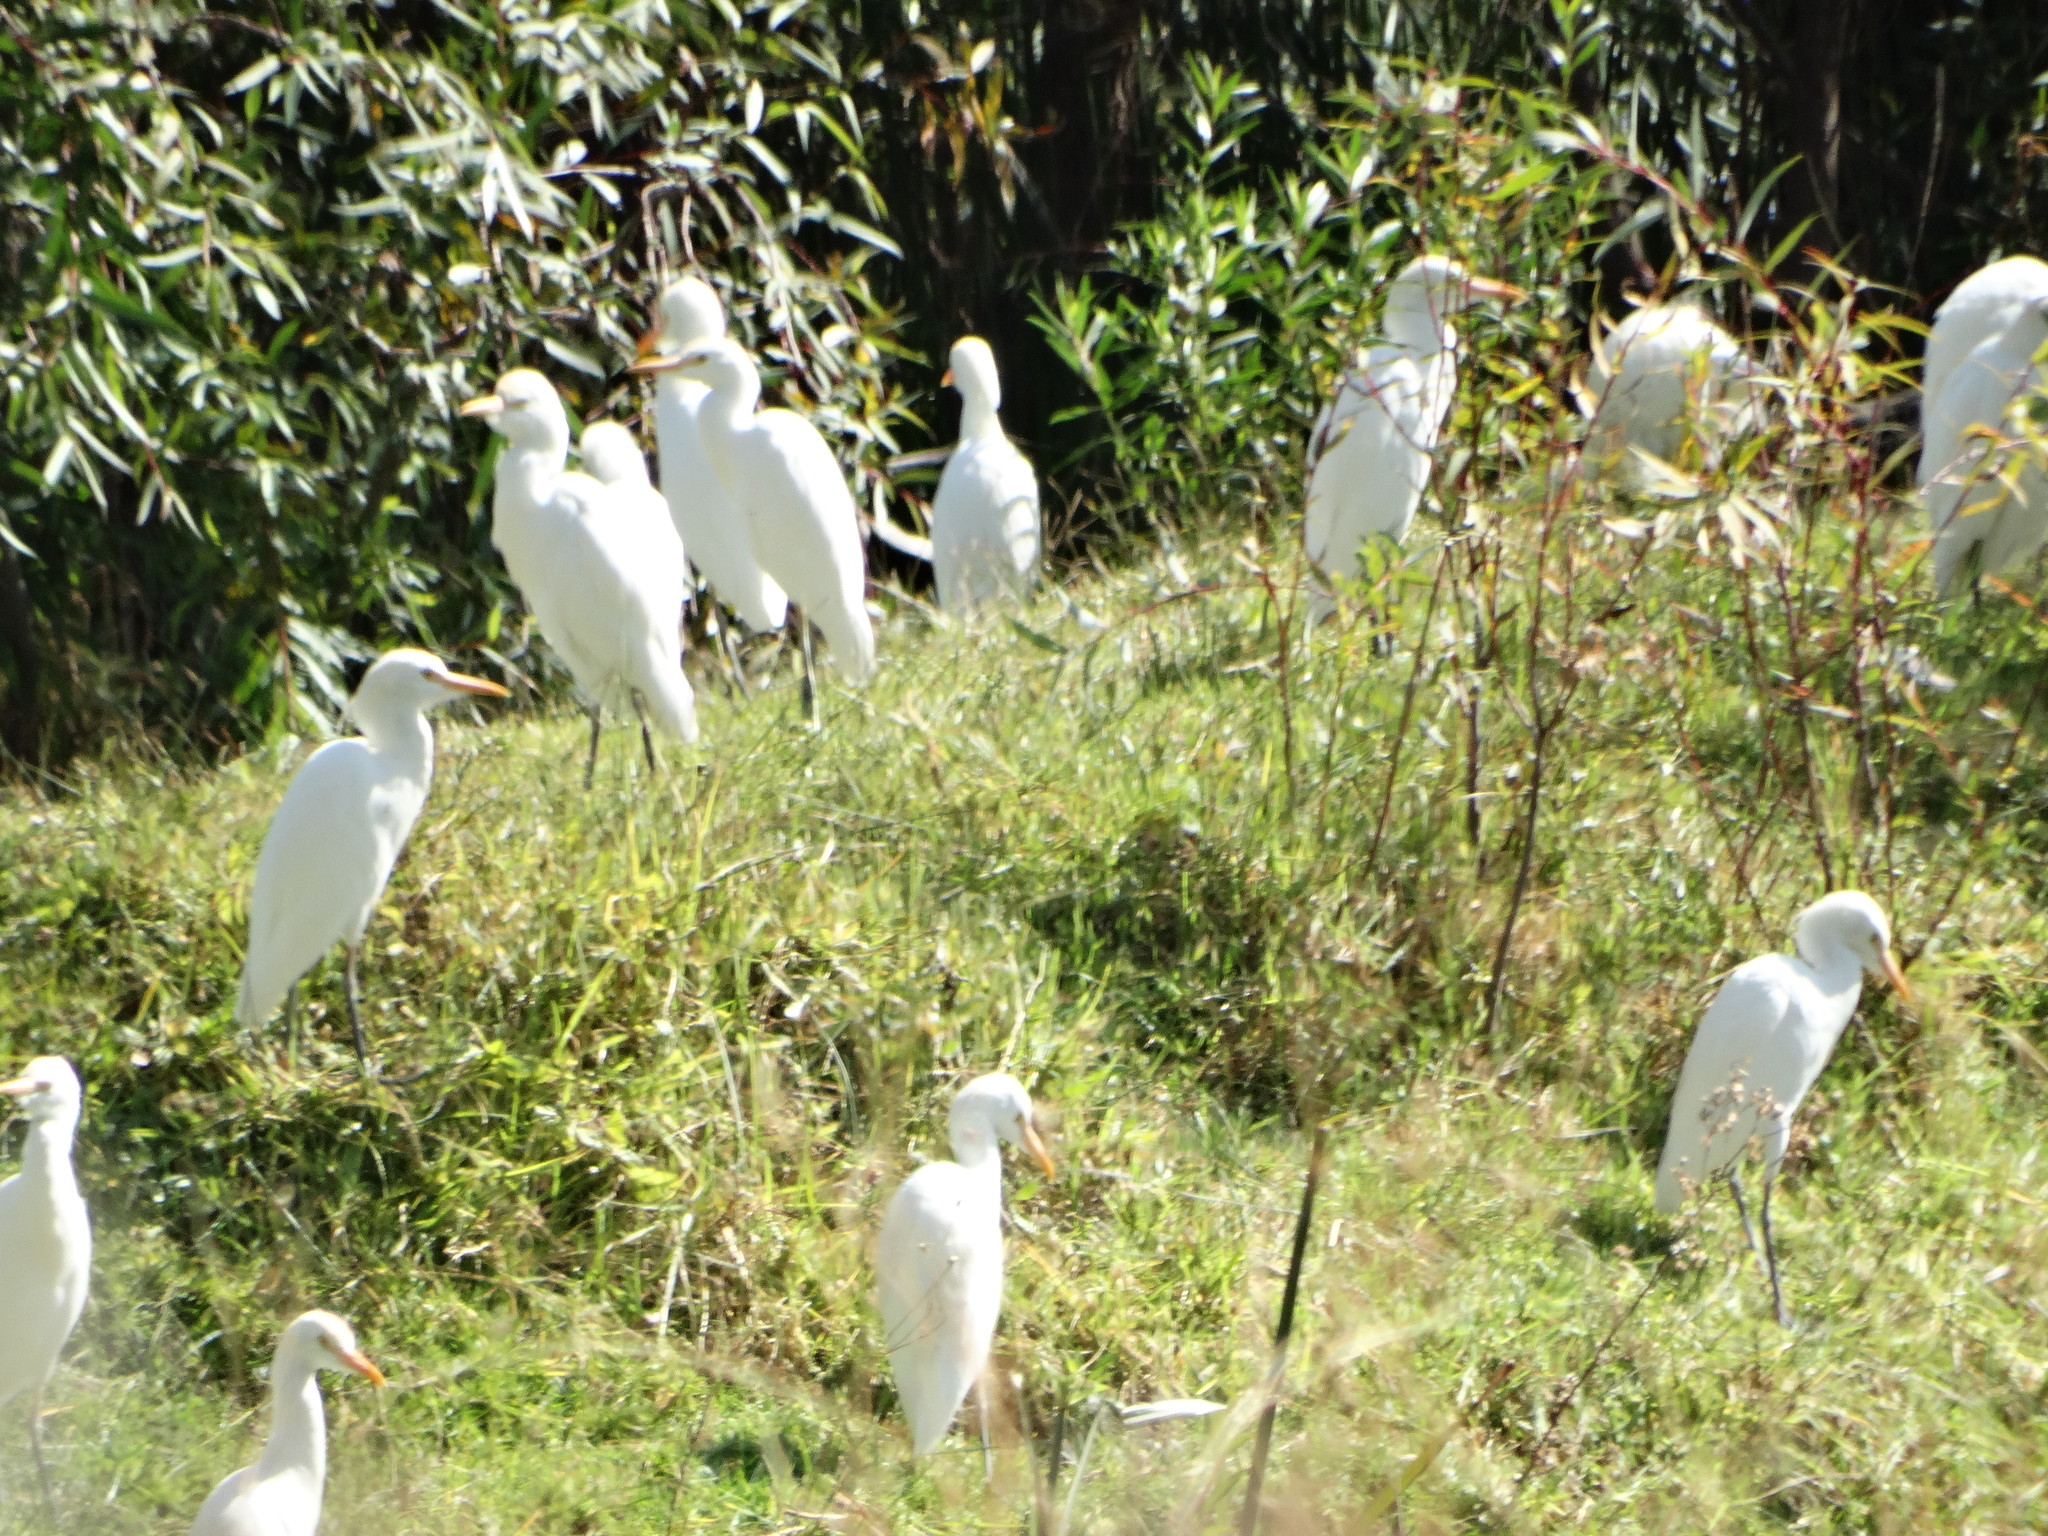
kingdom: Animalia
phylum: Chordata
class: Aves
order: Pelecaniformes
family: Ardeidae
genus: Bubulcus
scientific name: Bubulcus ibis
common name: Cattle egret
